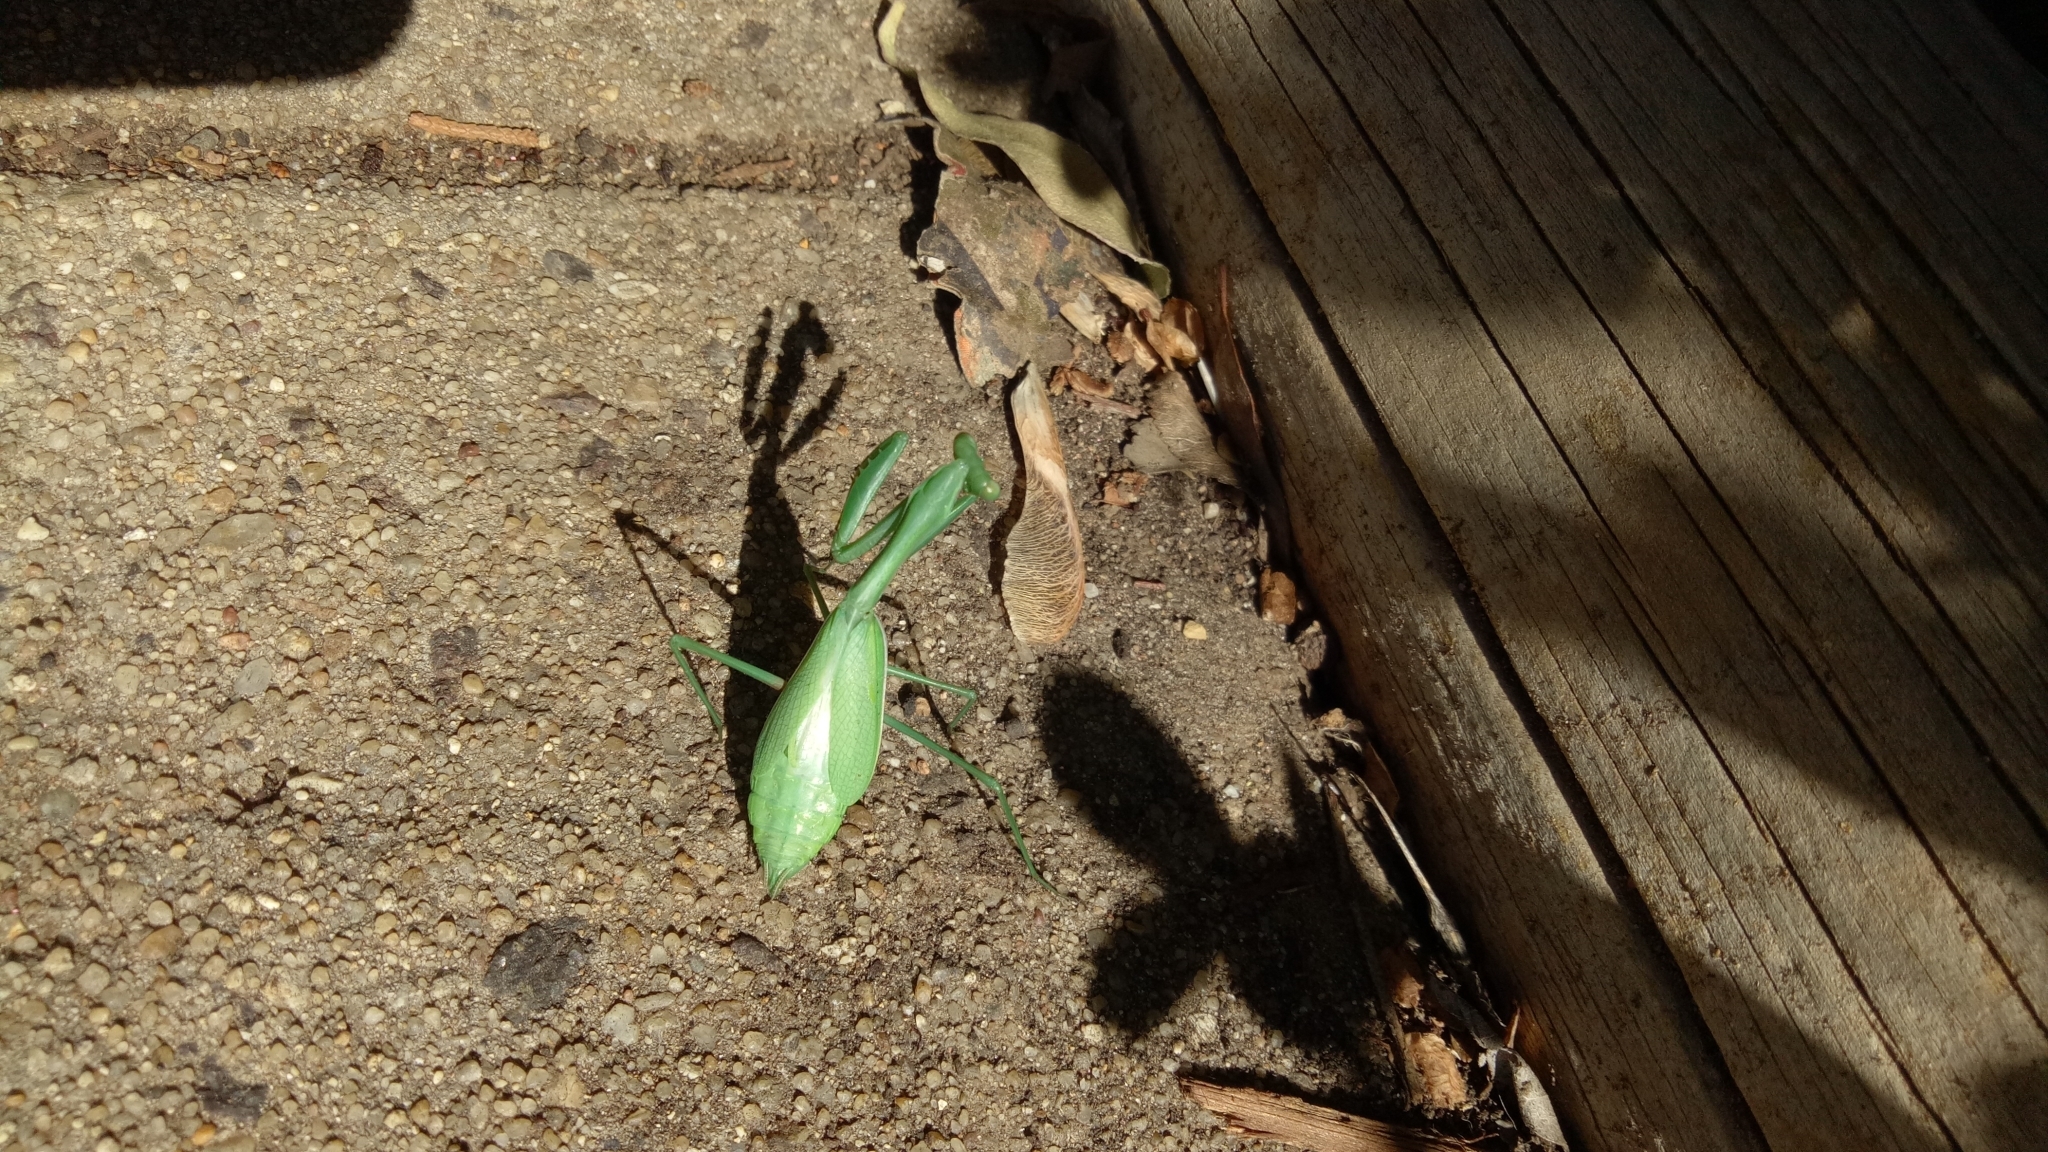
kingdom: Animalia
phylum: Arthropoda
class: Insecta
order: Mantodea
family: Mantidae
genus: Pseudomantis
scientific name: Pseudomantis albofimbriata
